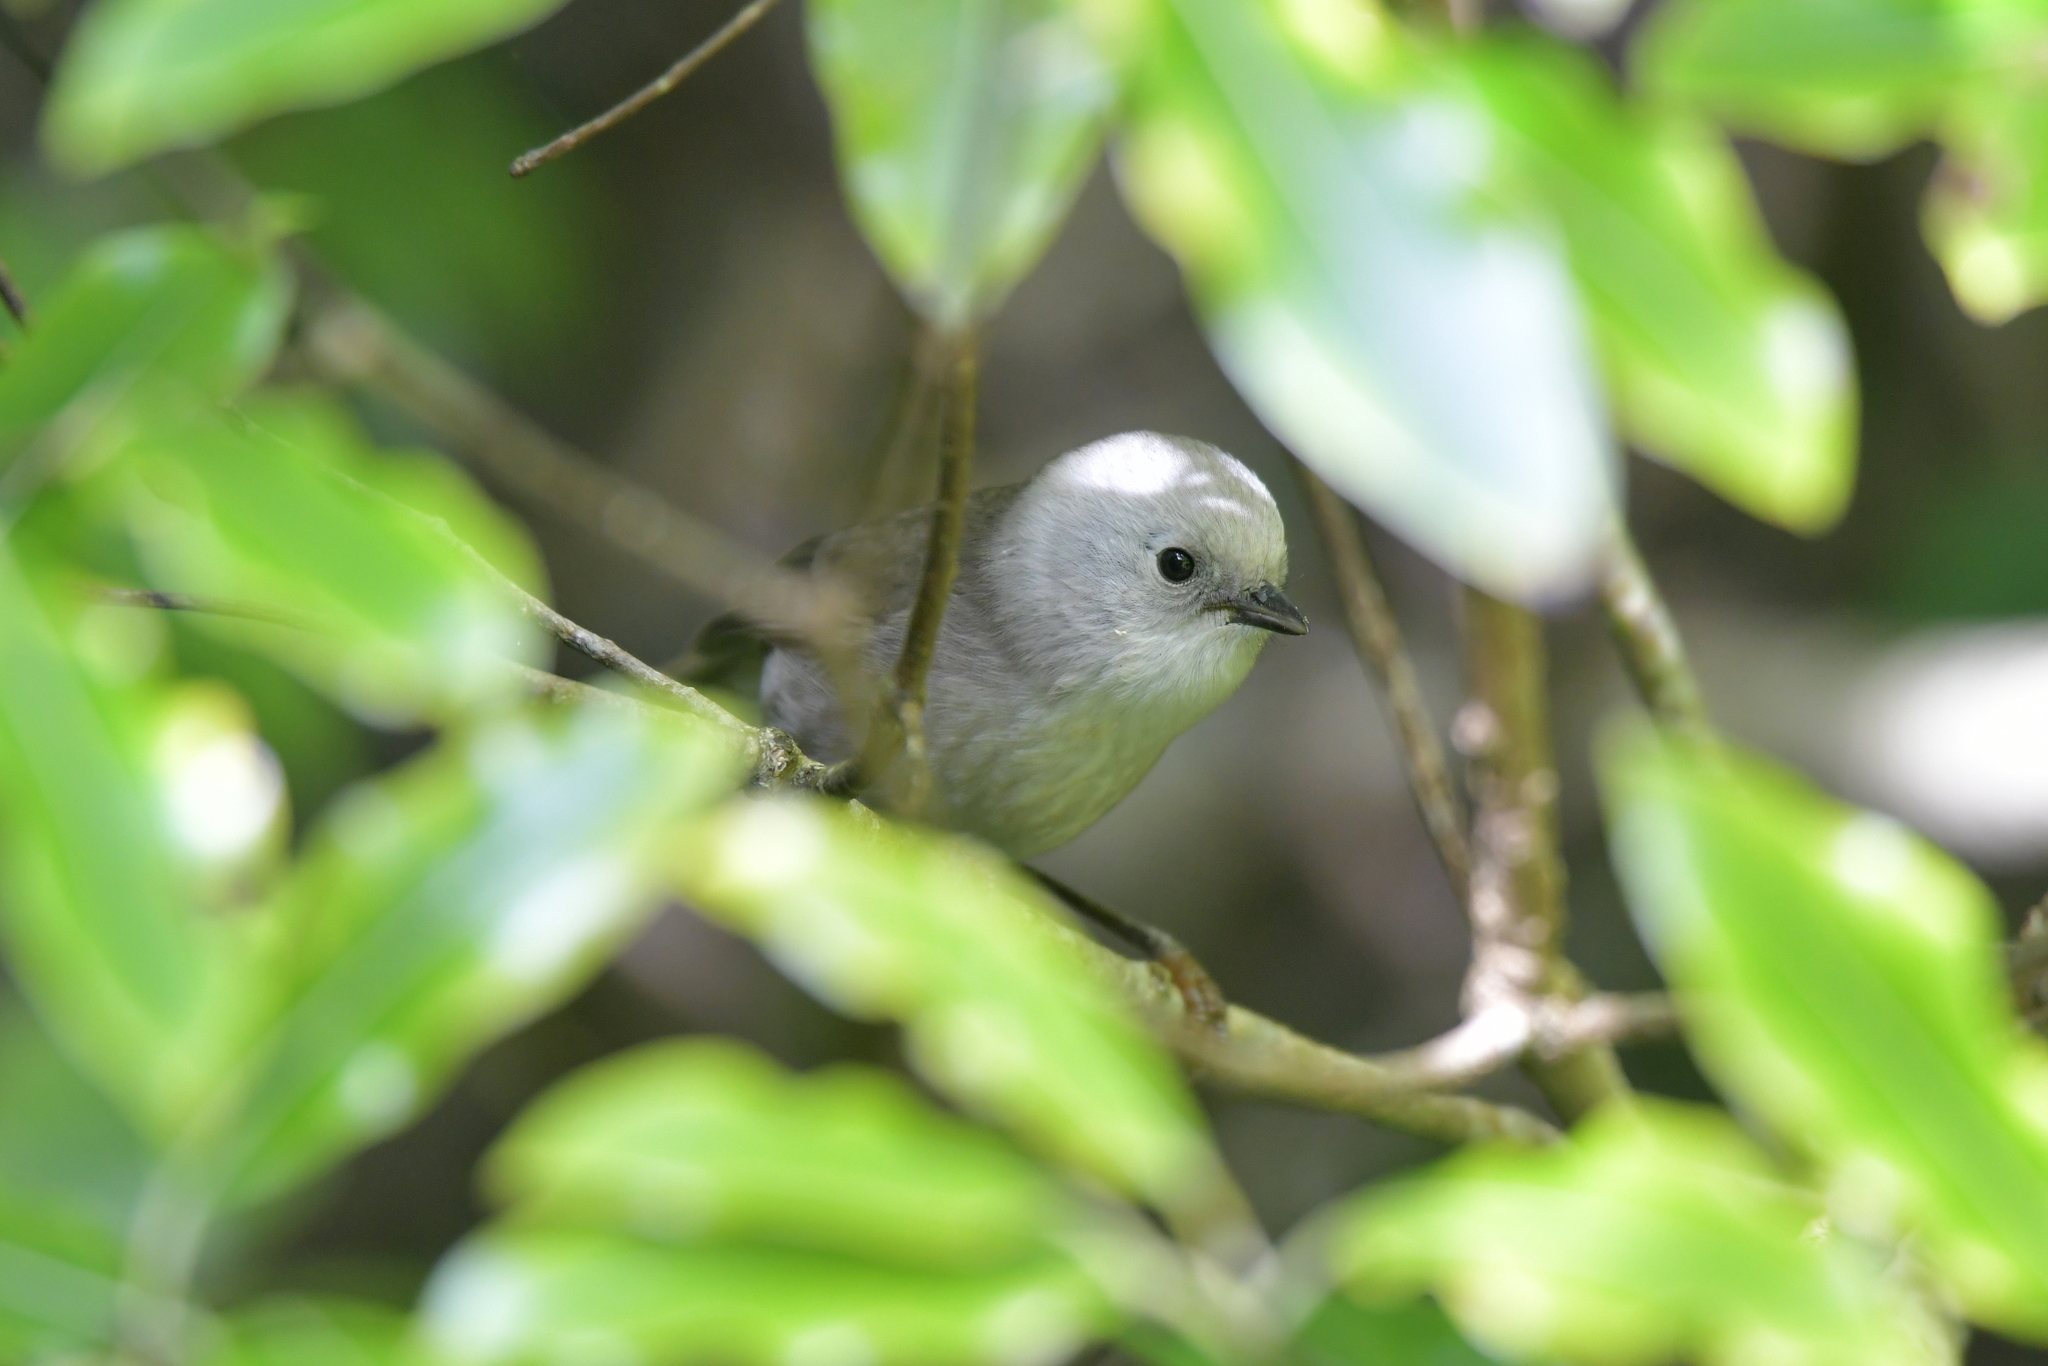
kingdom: Animalia
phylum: Chordata
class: Aves
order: Passeriformes
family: Acanthizidae
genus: Mohoua
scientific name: Mohoua albicilla
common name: Whitehead
